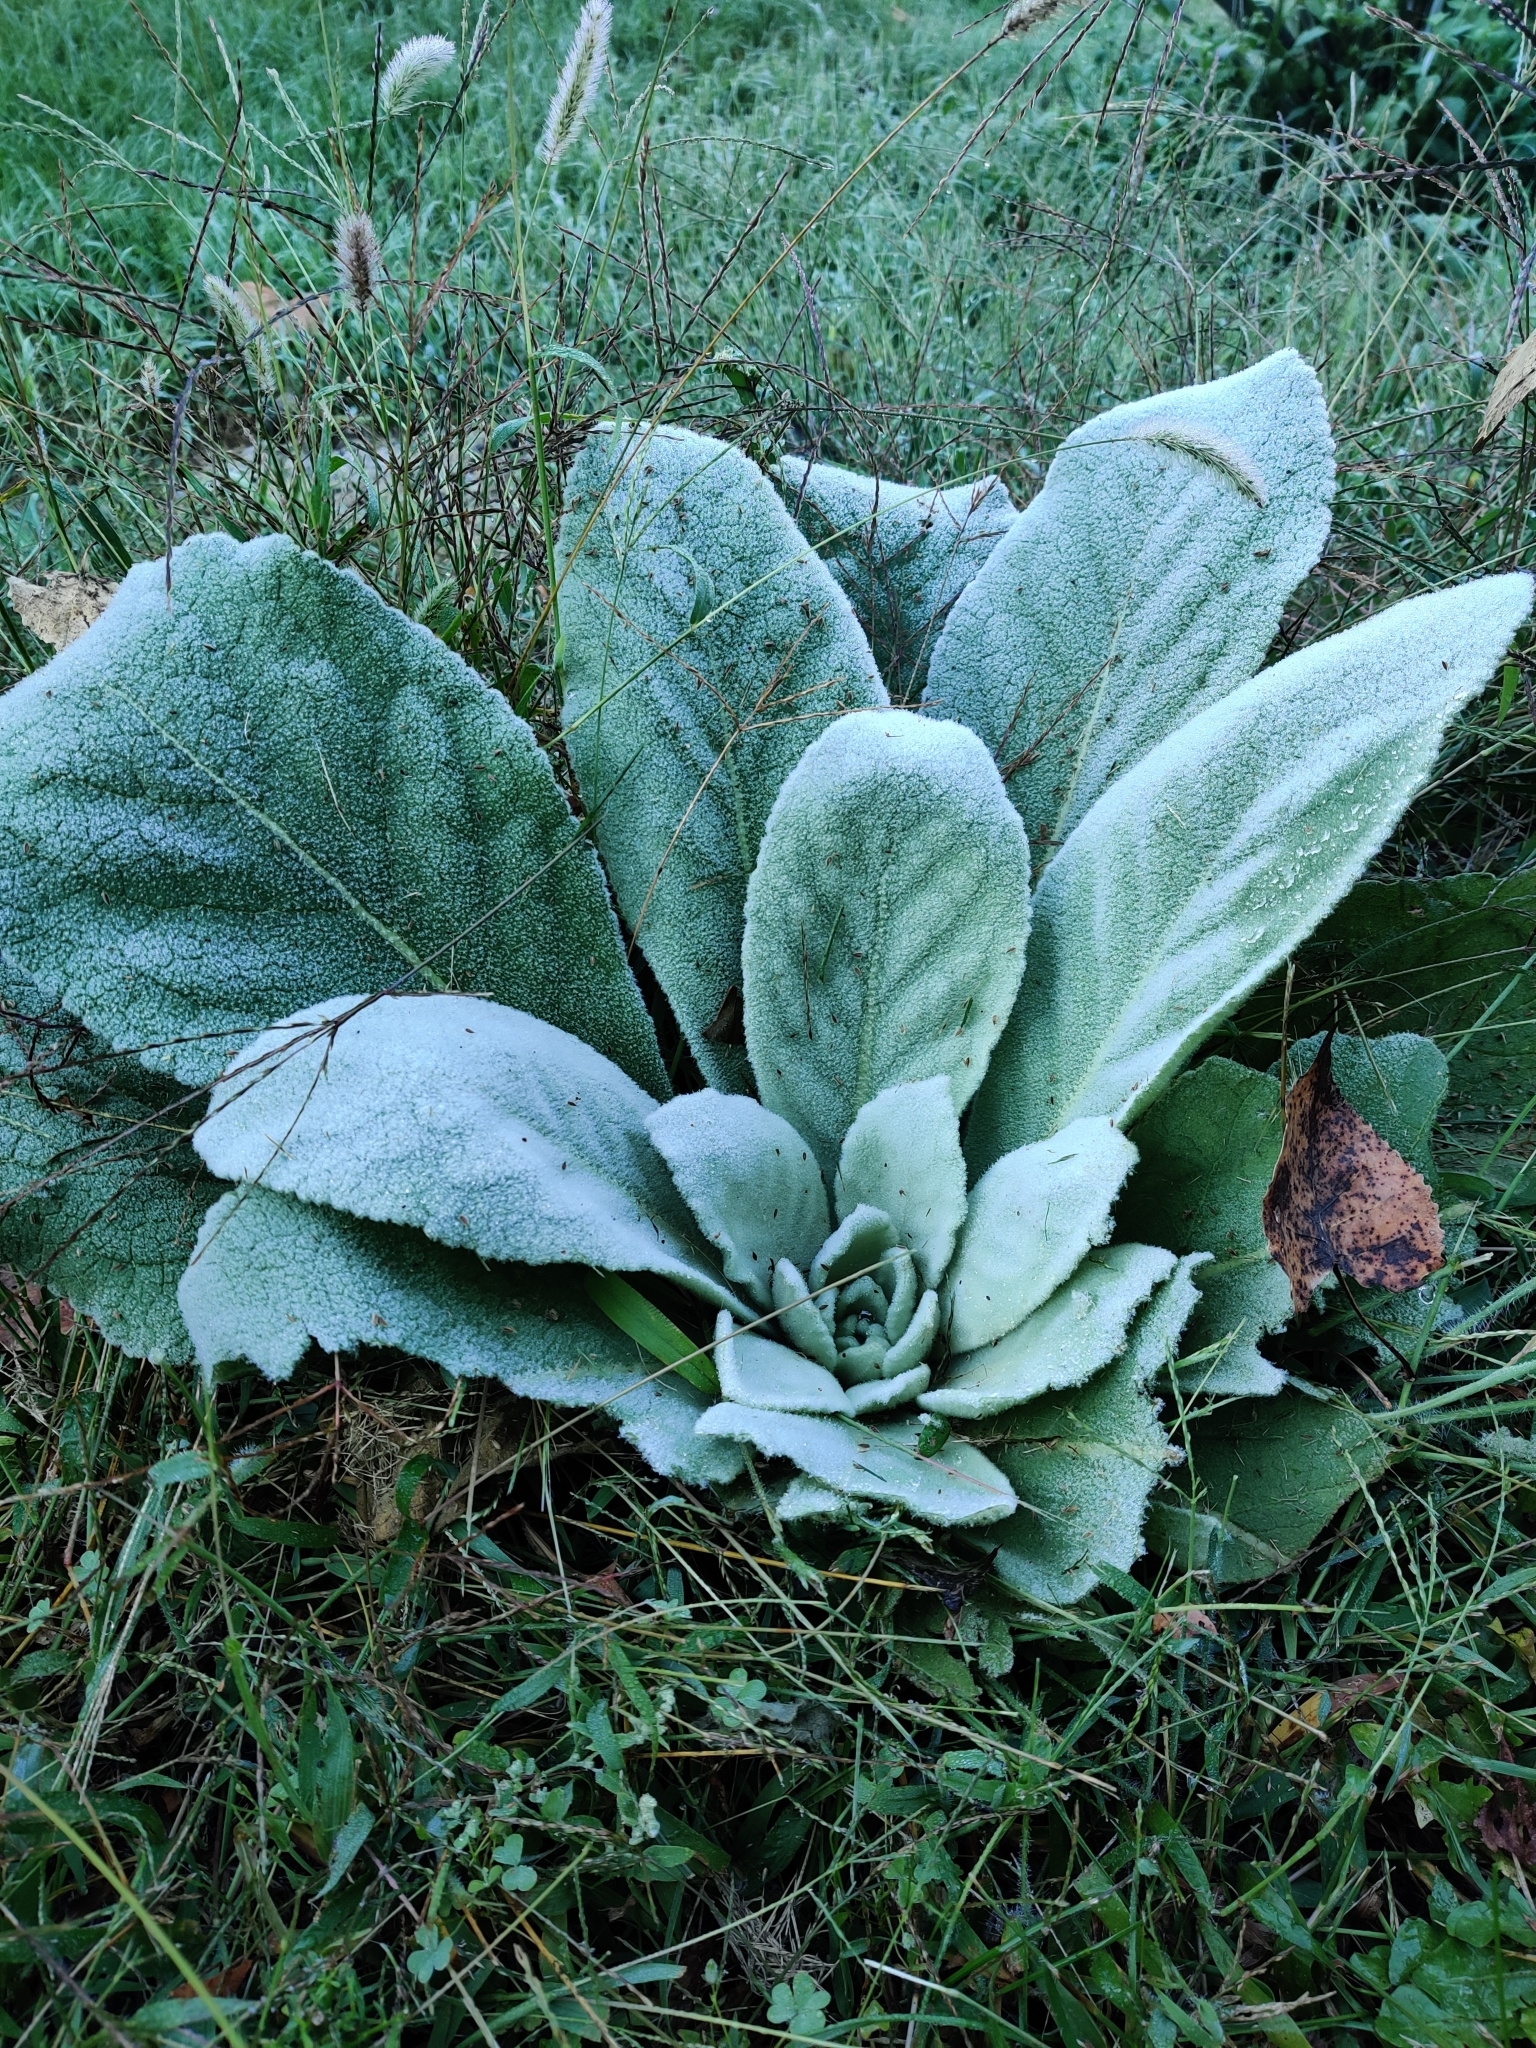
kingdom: Plantae
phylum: Tracheophyta
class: Magnoliopsida
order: Lamiales
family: Scrophulariaceae
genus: Verbascum
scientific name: Verbascum thapsus
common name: Common mullein
